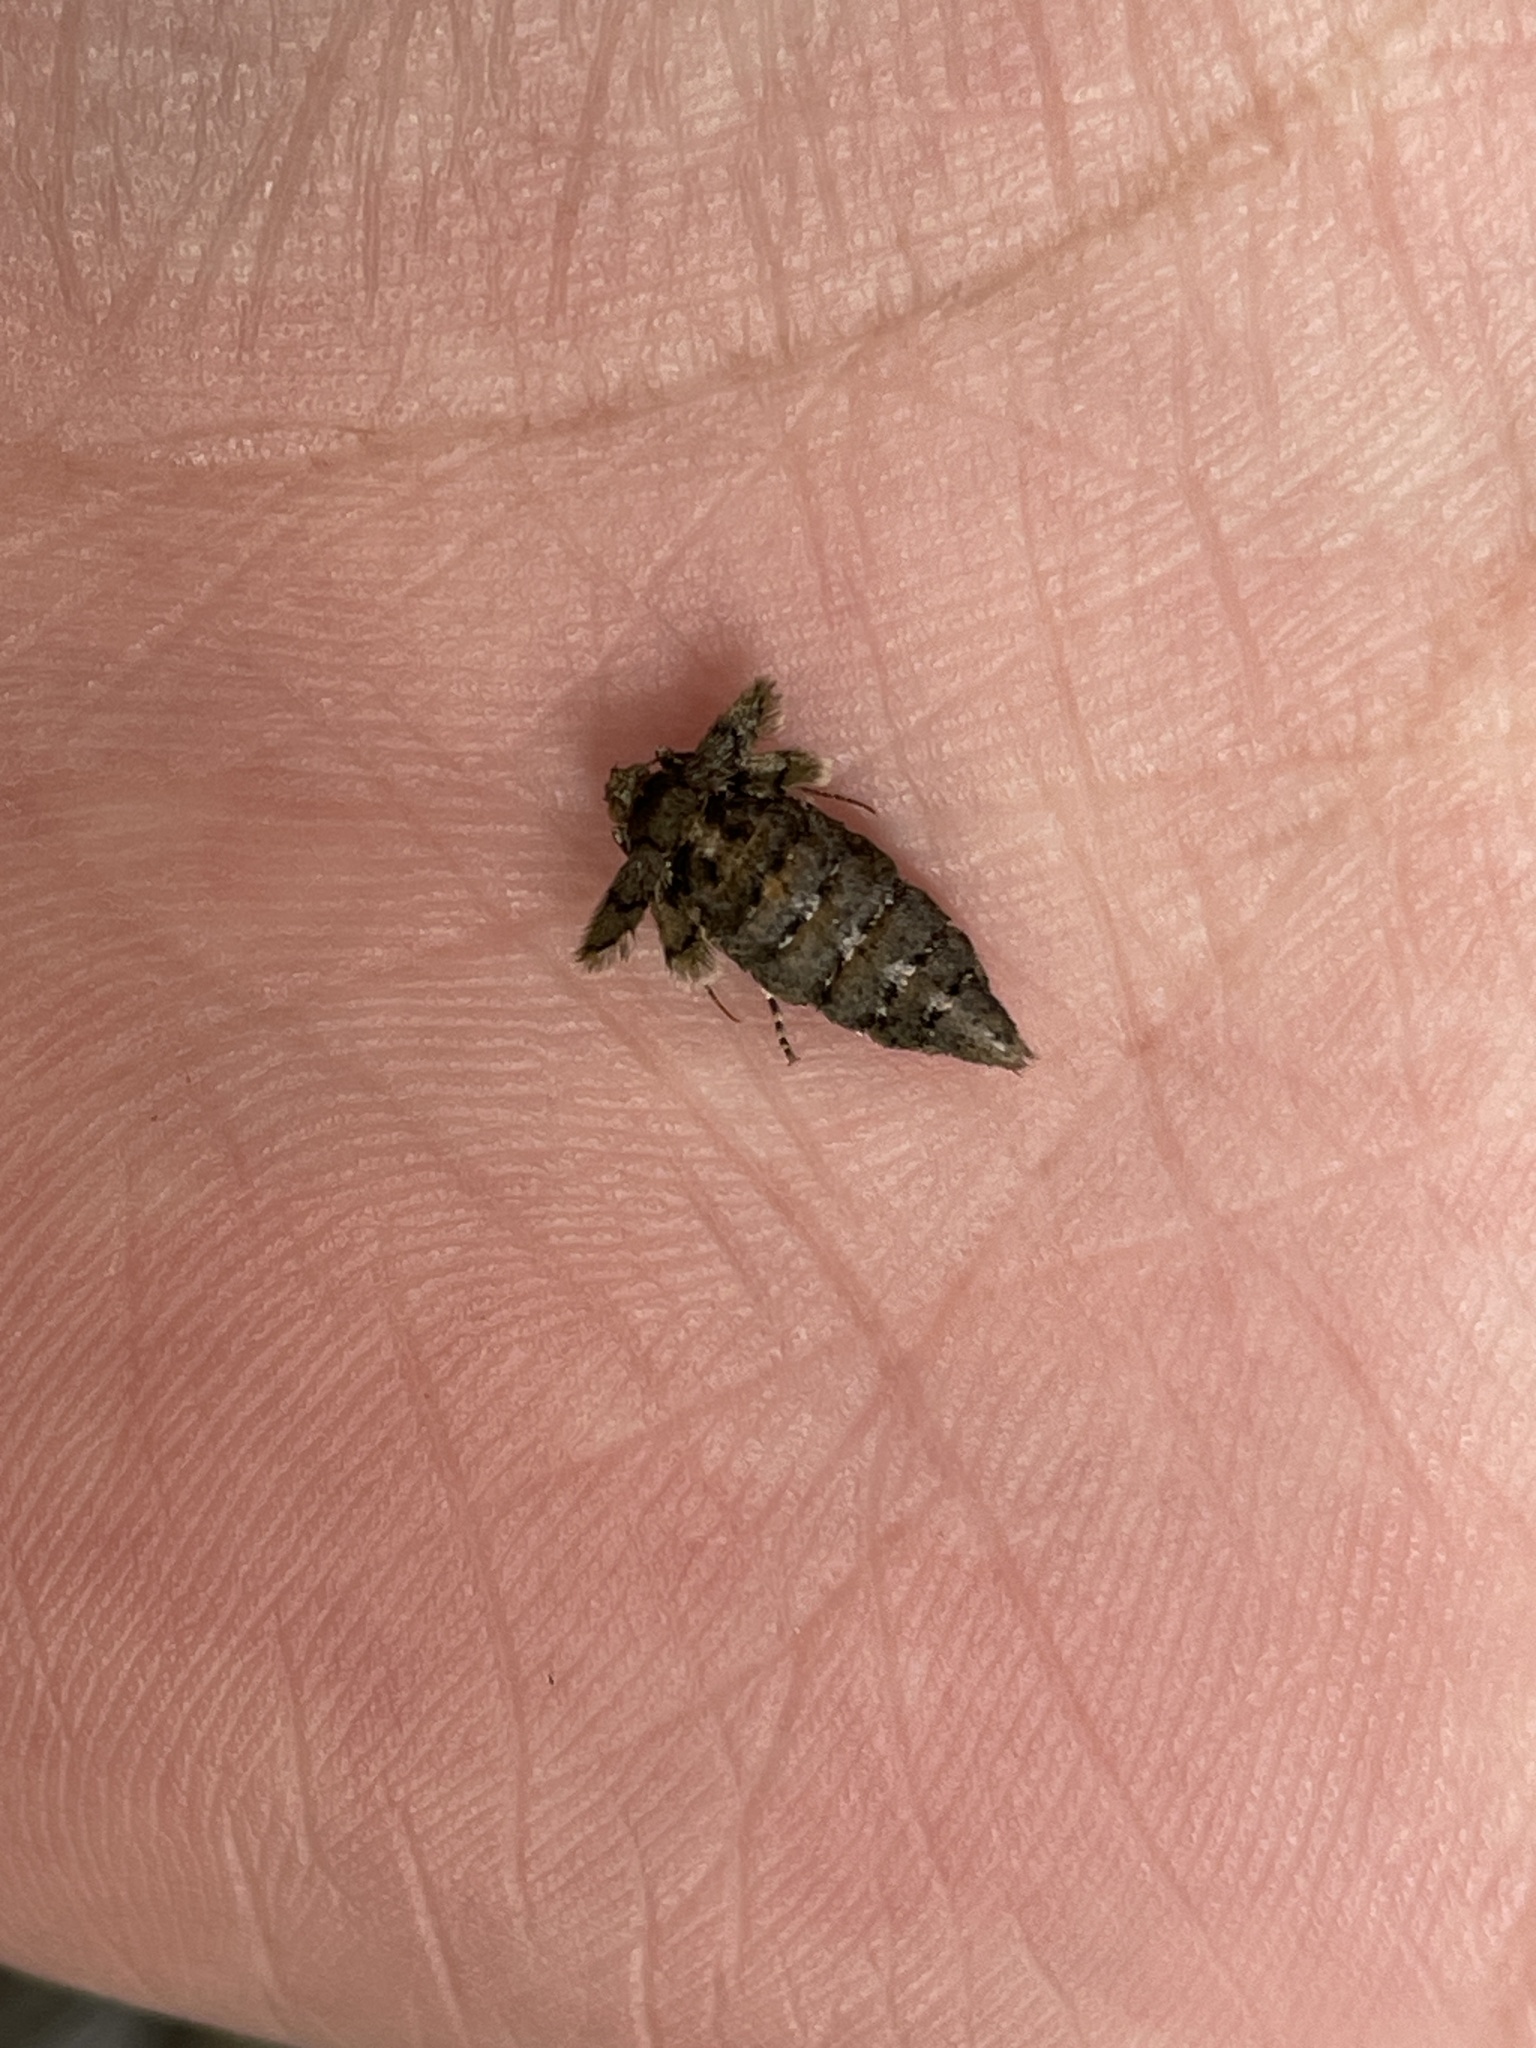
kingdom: Animalia
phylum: Arthropoda
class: Insecta
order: Lepidoptera
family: Geometridae
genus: Agriopis
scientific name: Agriopis aurantiaria
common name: Scarce umber
